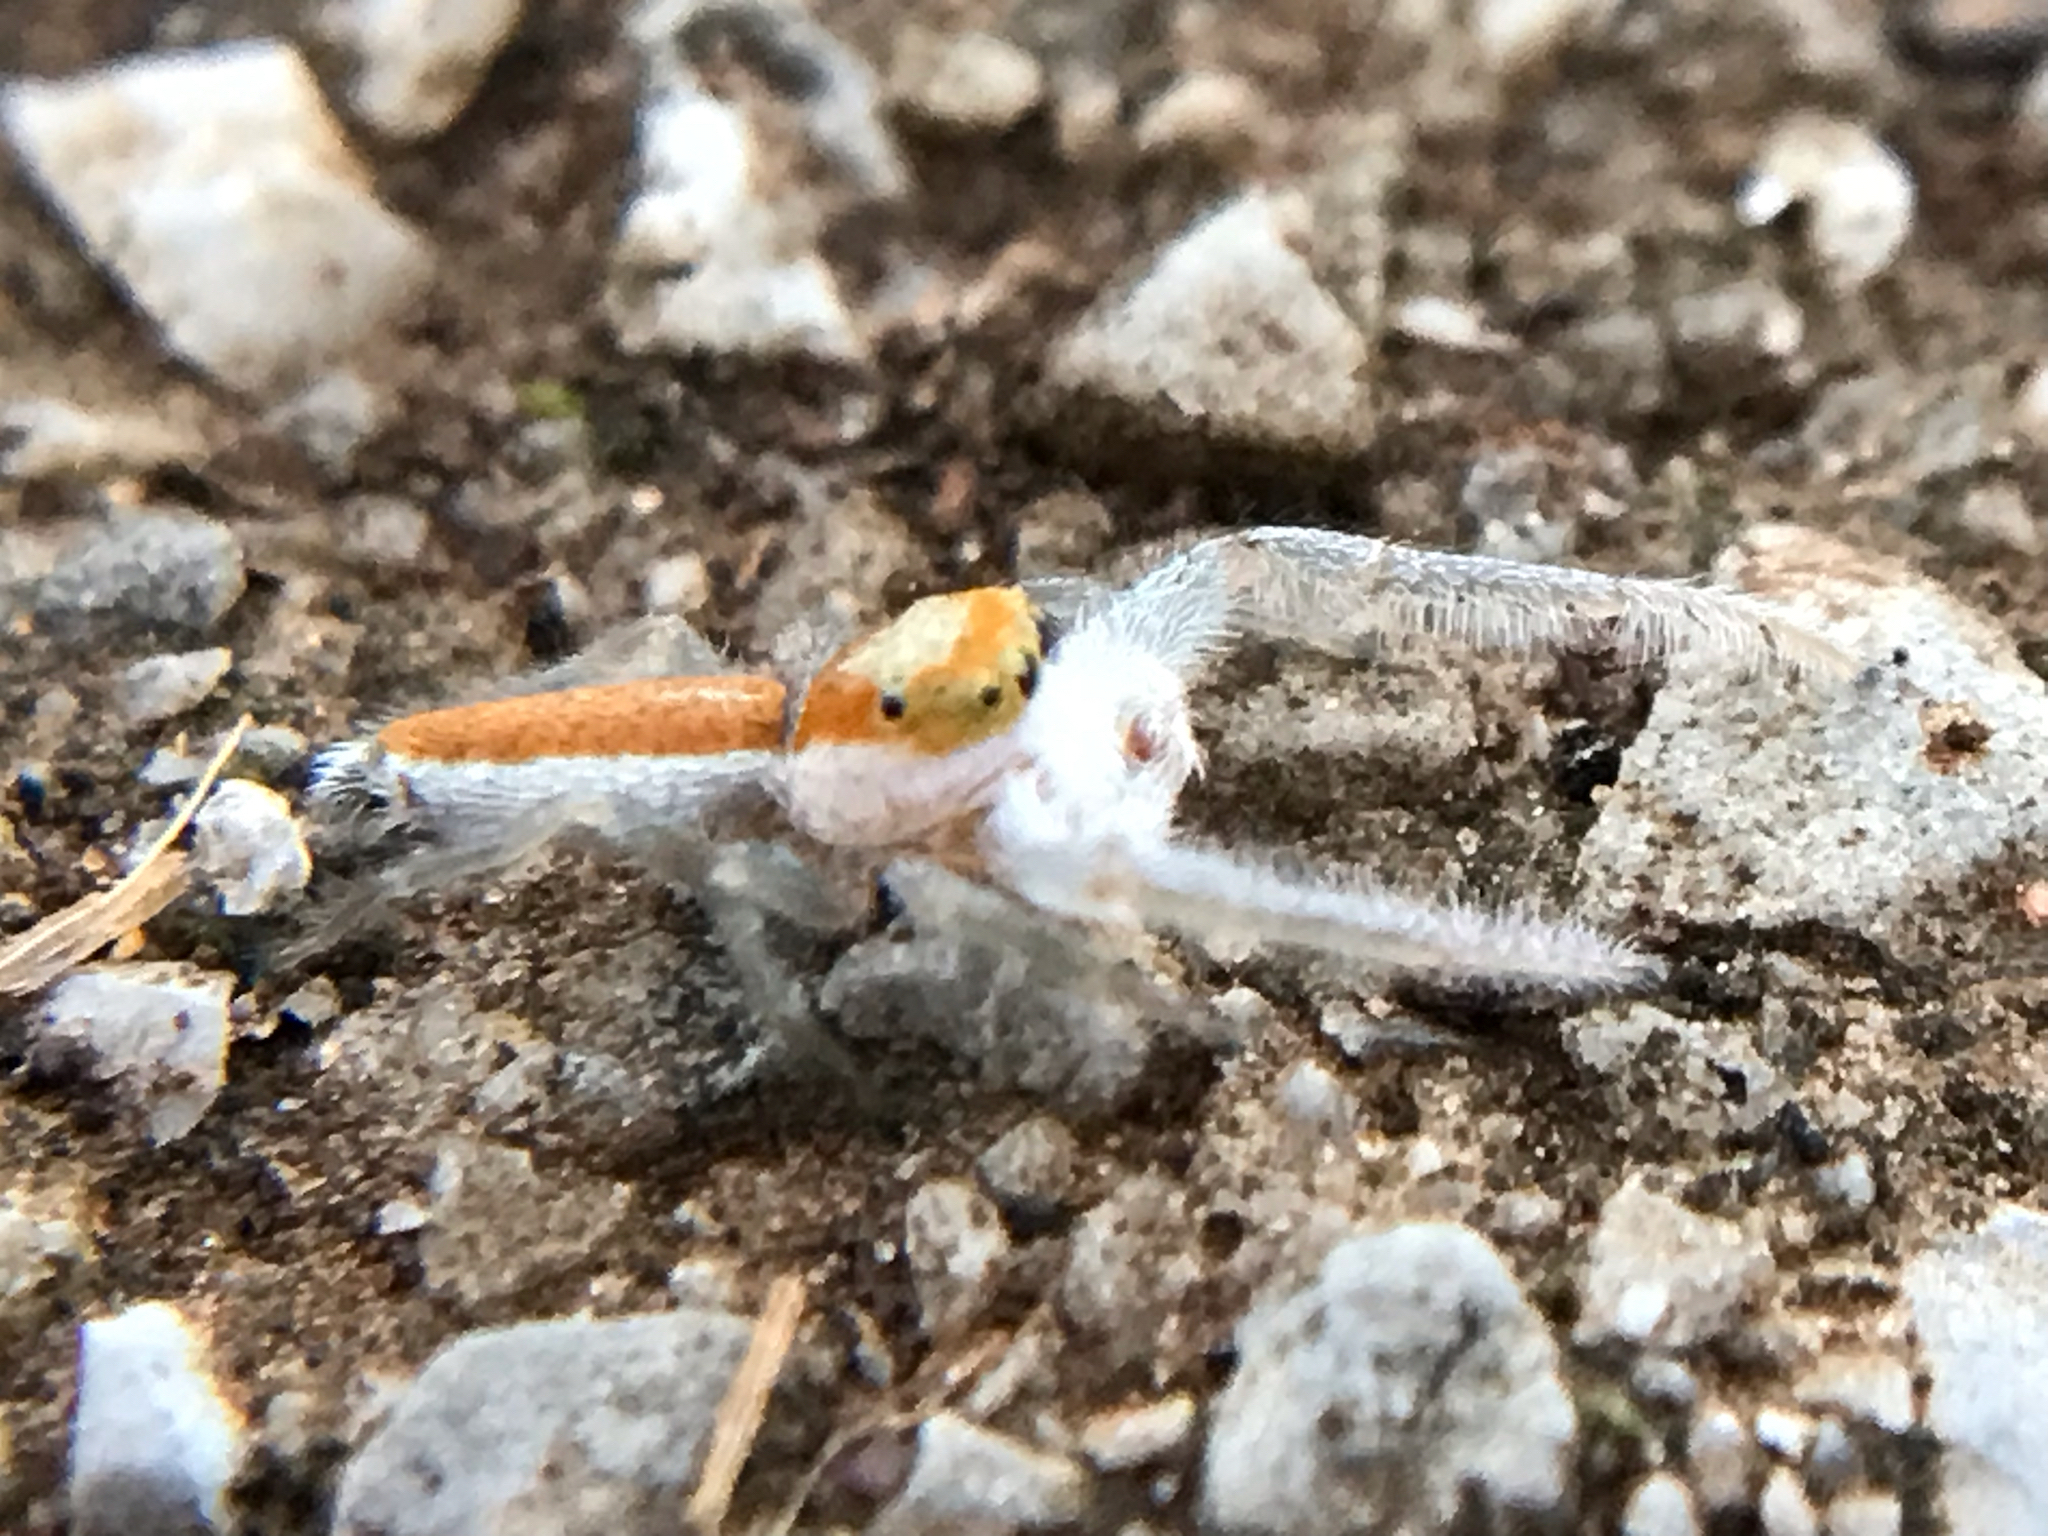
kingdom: Animalia
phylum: Arthropoda
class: Arachnida
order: Araneae
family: Salticidae
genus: Hentzia
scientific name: Hentzia mitrata
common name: White-jawed jumping spider
